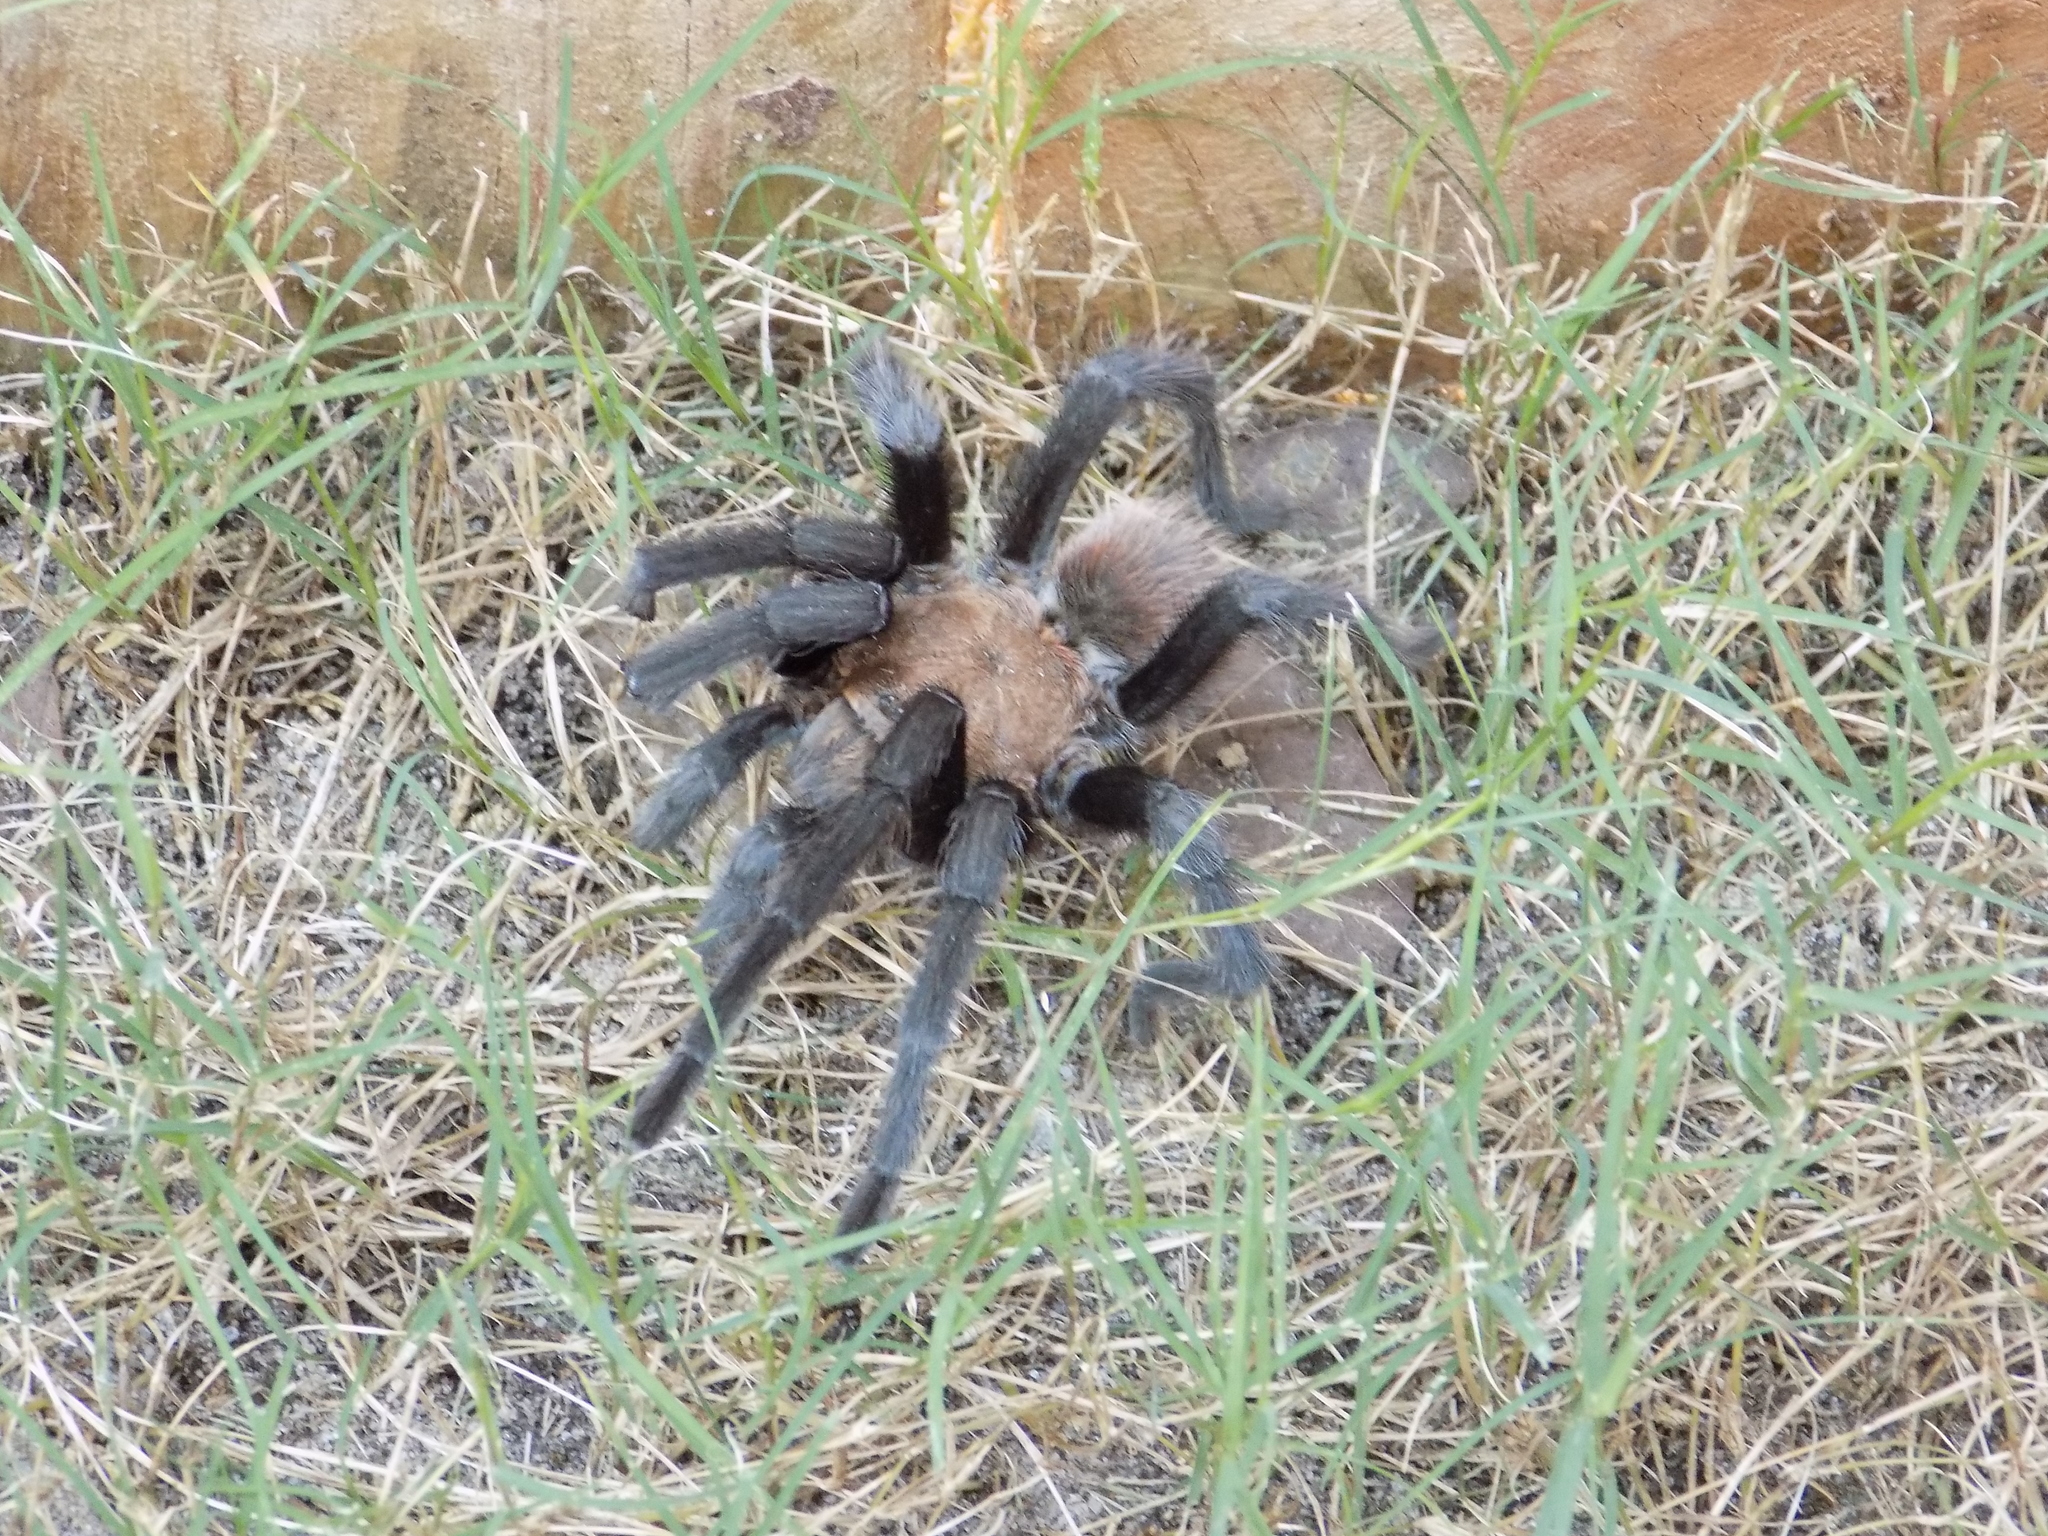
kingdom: Animalia
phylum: Arthropoda
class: Arachnida
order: Araneae
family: Theraphosidae
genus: Aphonopelma
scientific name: Aphonopelma hentzi
